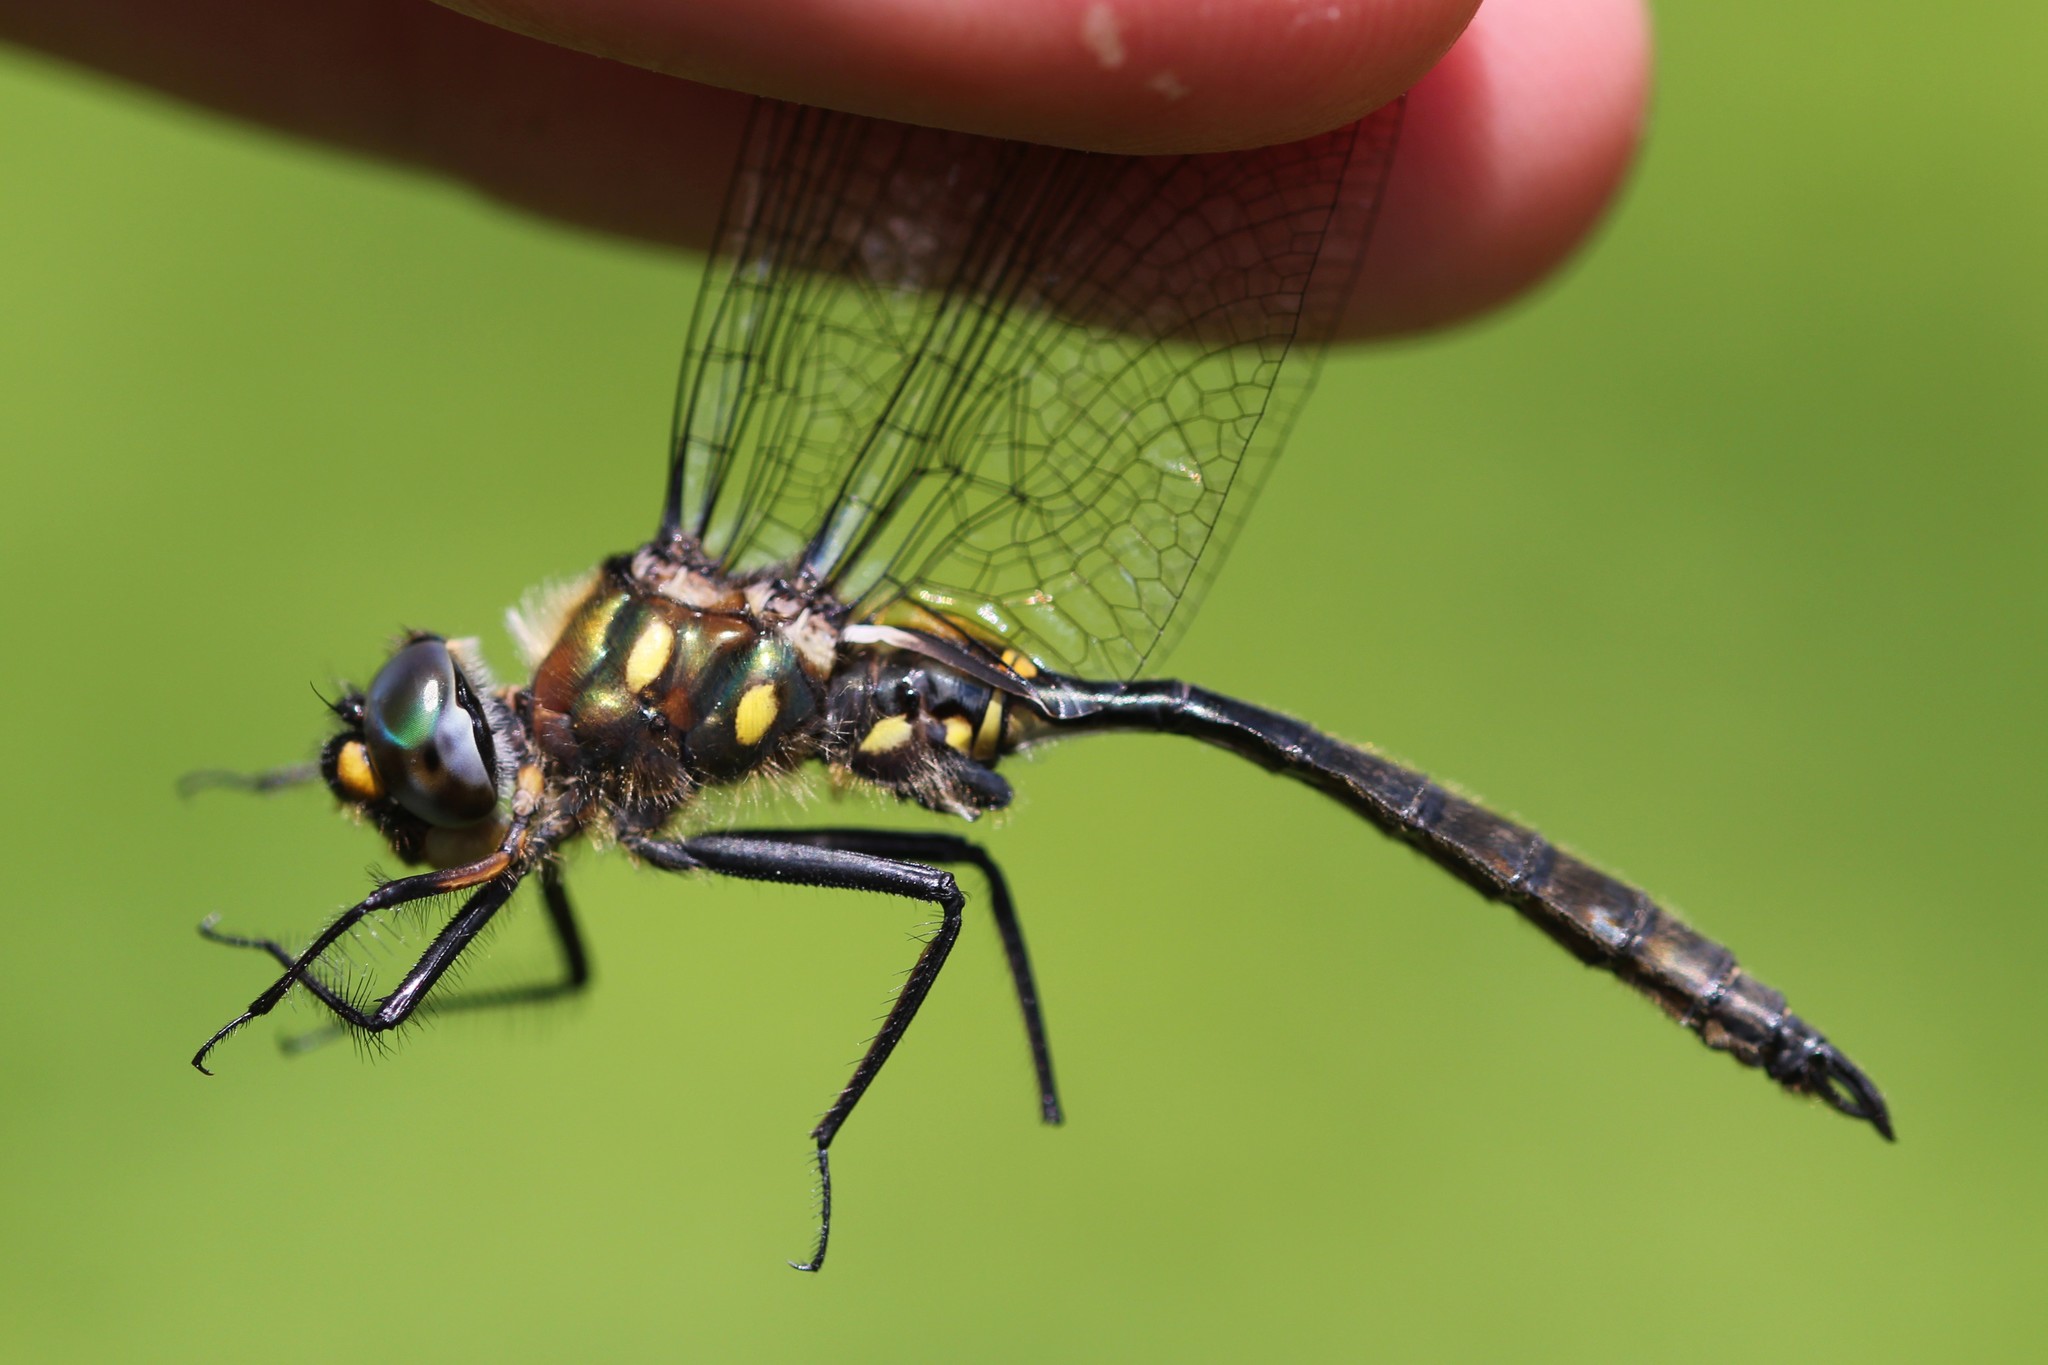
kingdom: Animalia
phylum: Arthropoda
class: Insecta
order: Odonata
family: Corduliidae
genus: Somatochlora
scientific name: Somatochlora minor
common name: Ocellated emerald
